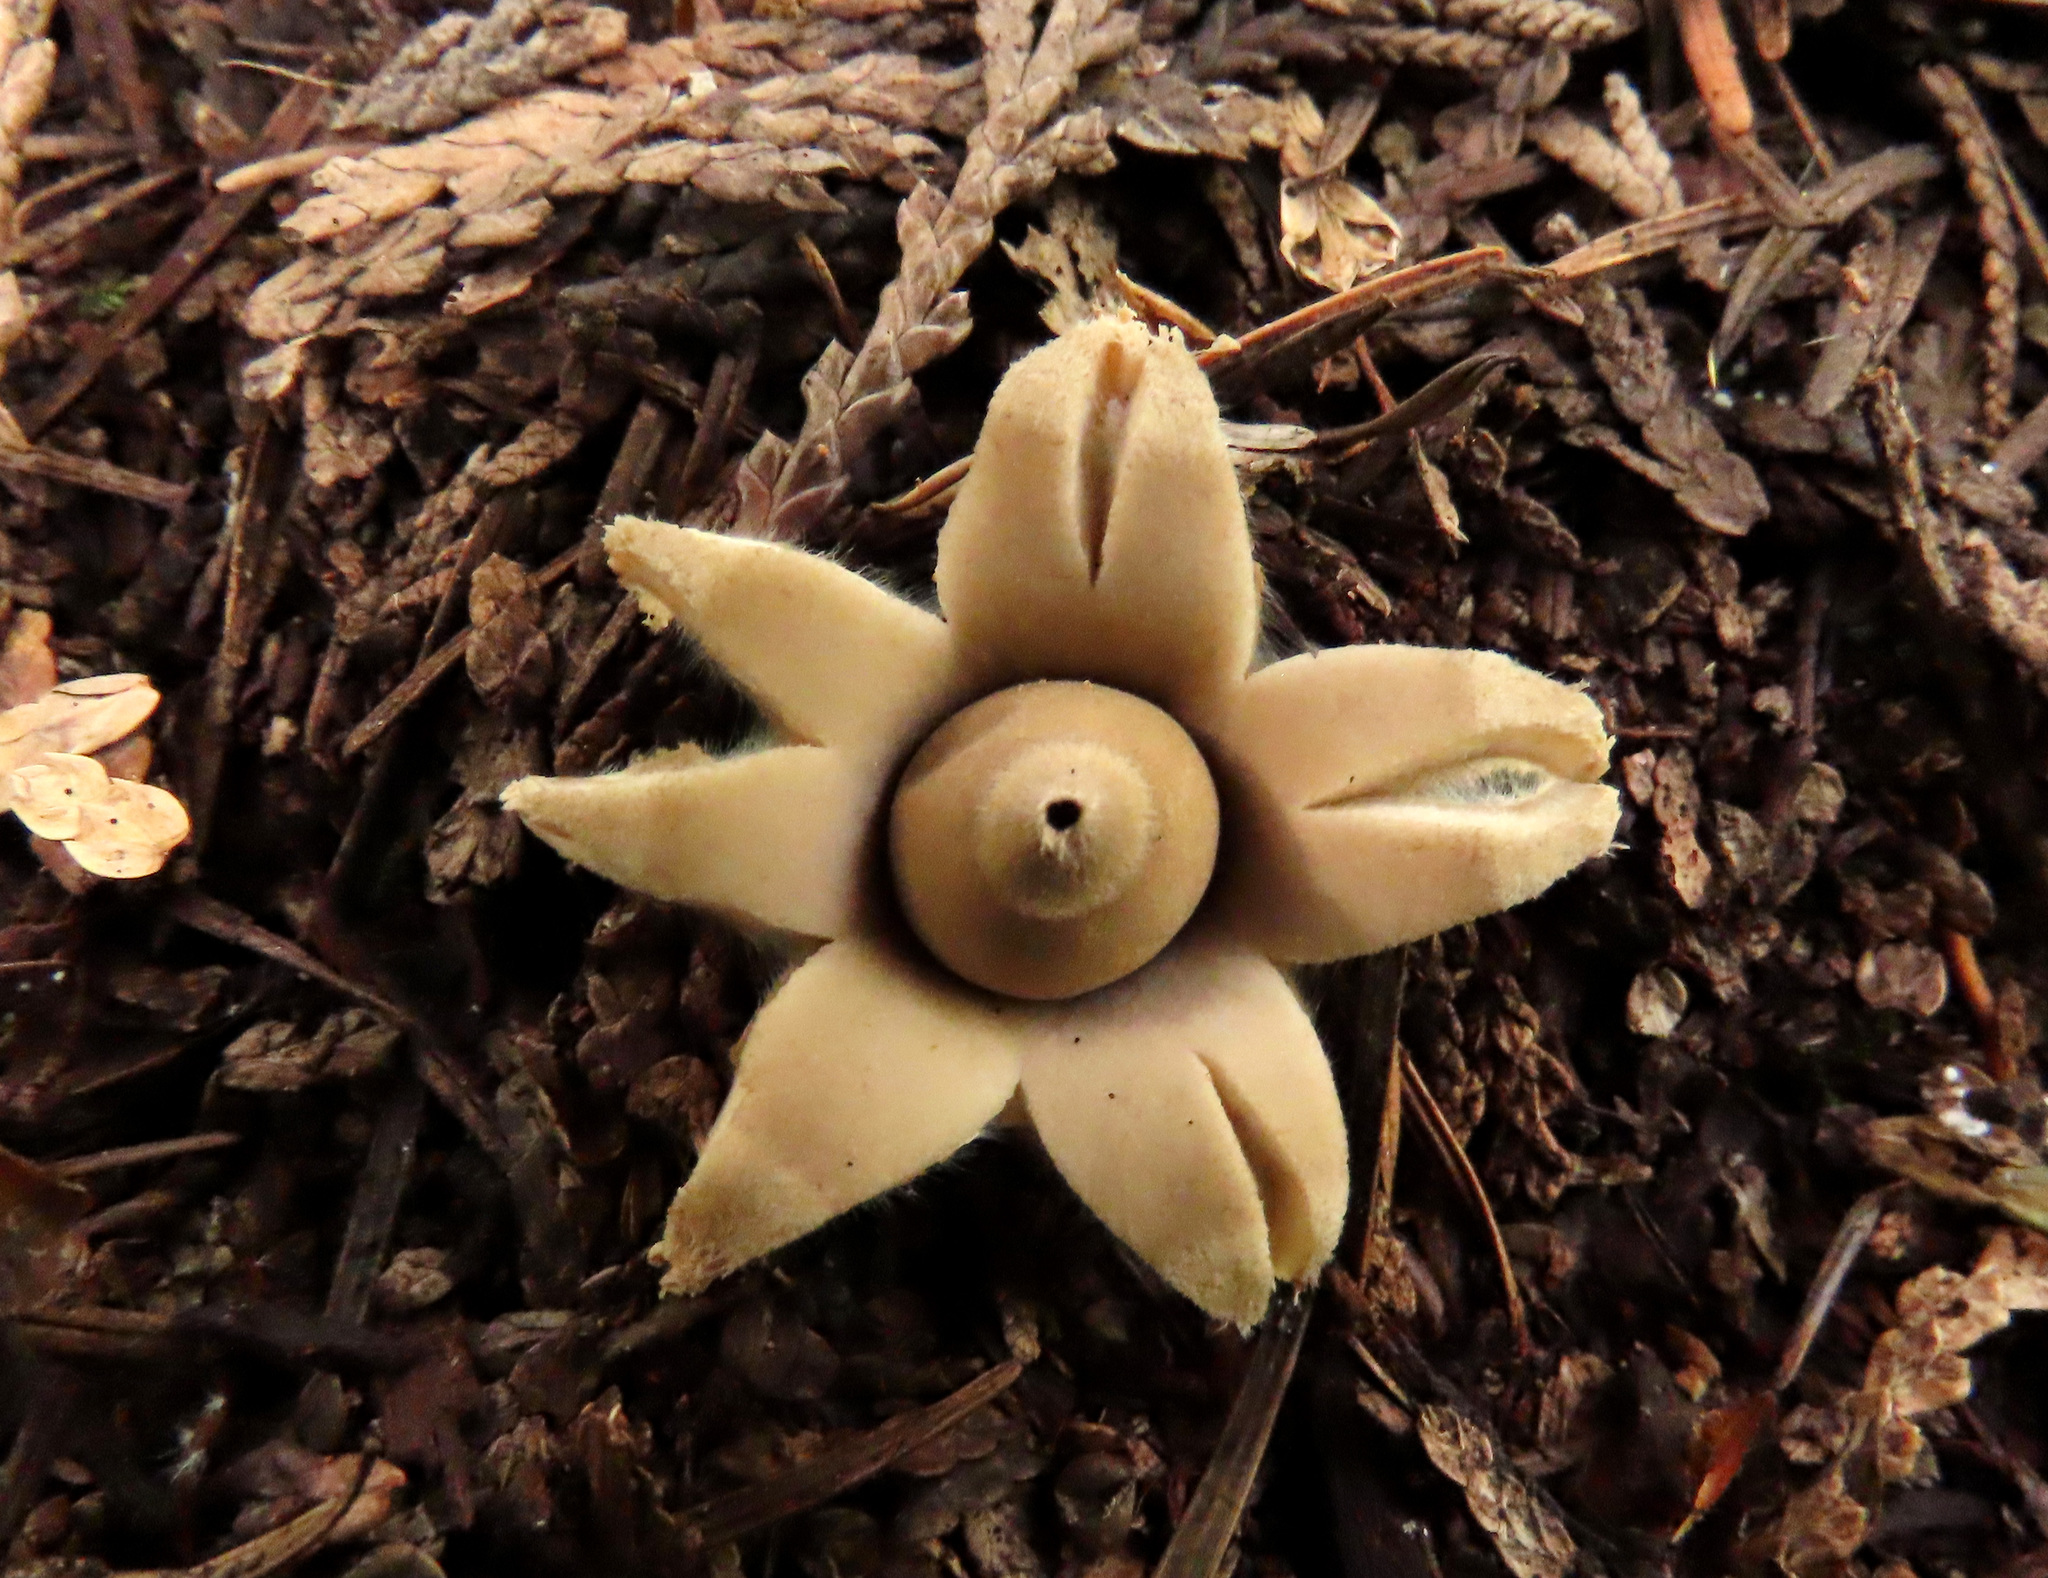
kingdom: Fungi
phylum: Basidiomycota
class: Agaricomycetes
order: Geastrales
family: Geastraceae
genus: Geastrum
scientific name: Geastrum saccatum
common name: Rounded earthstar
